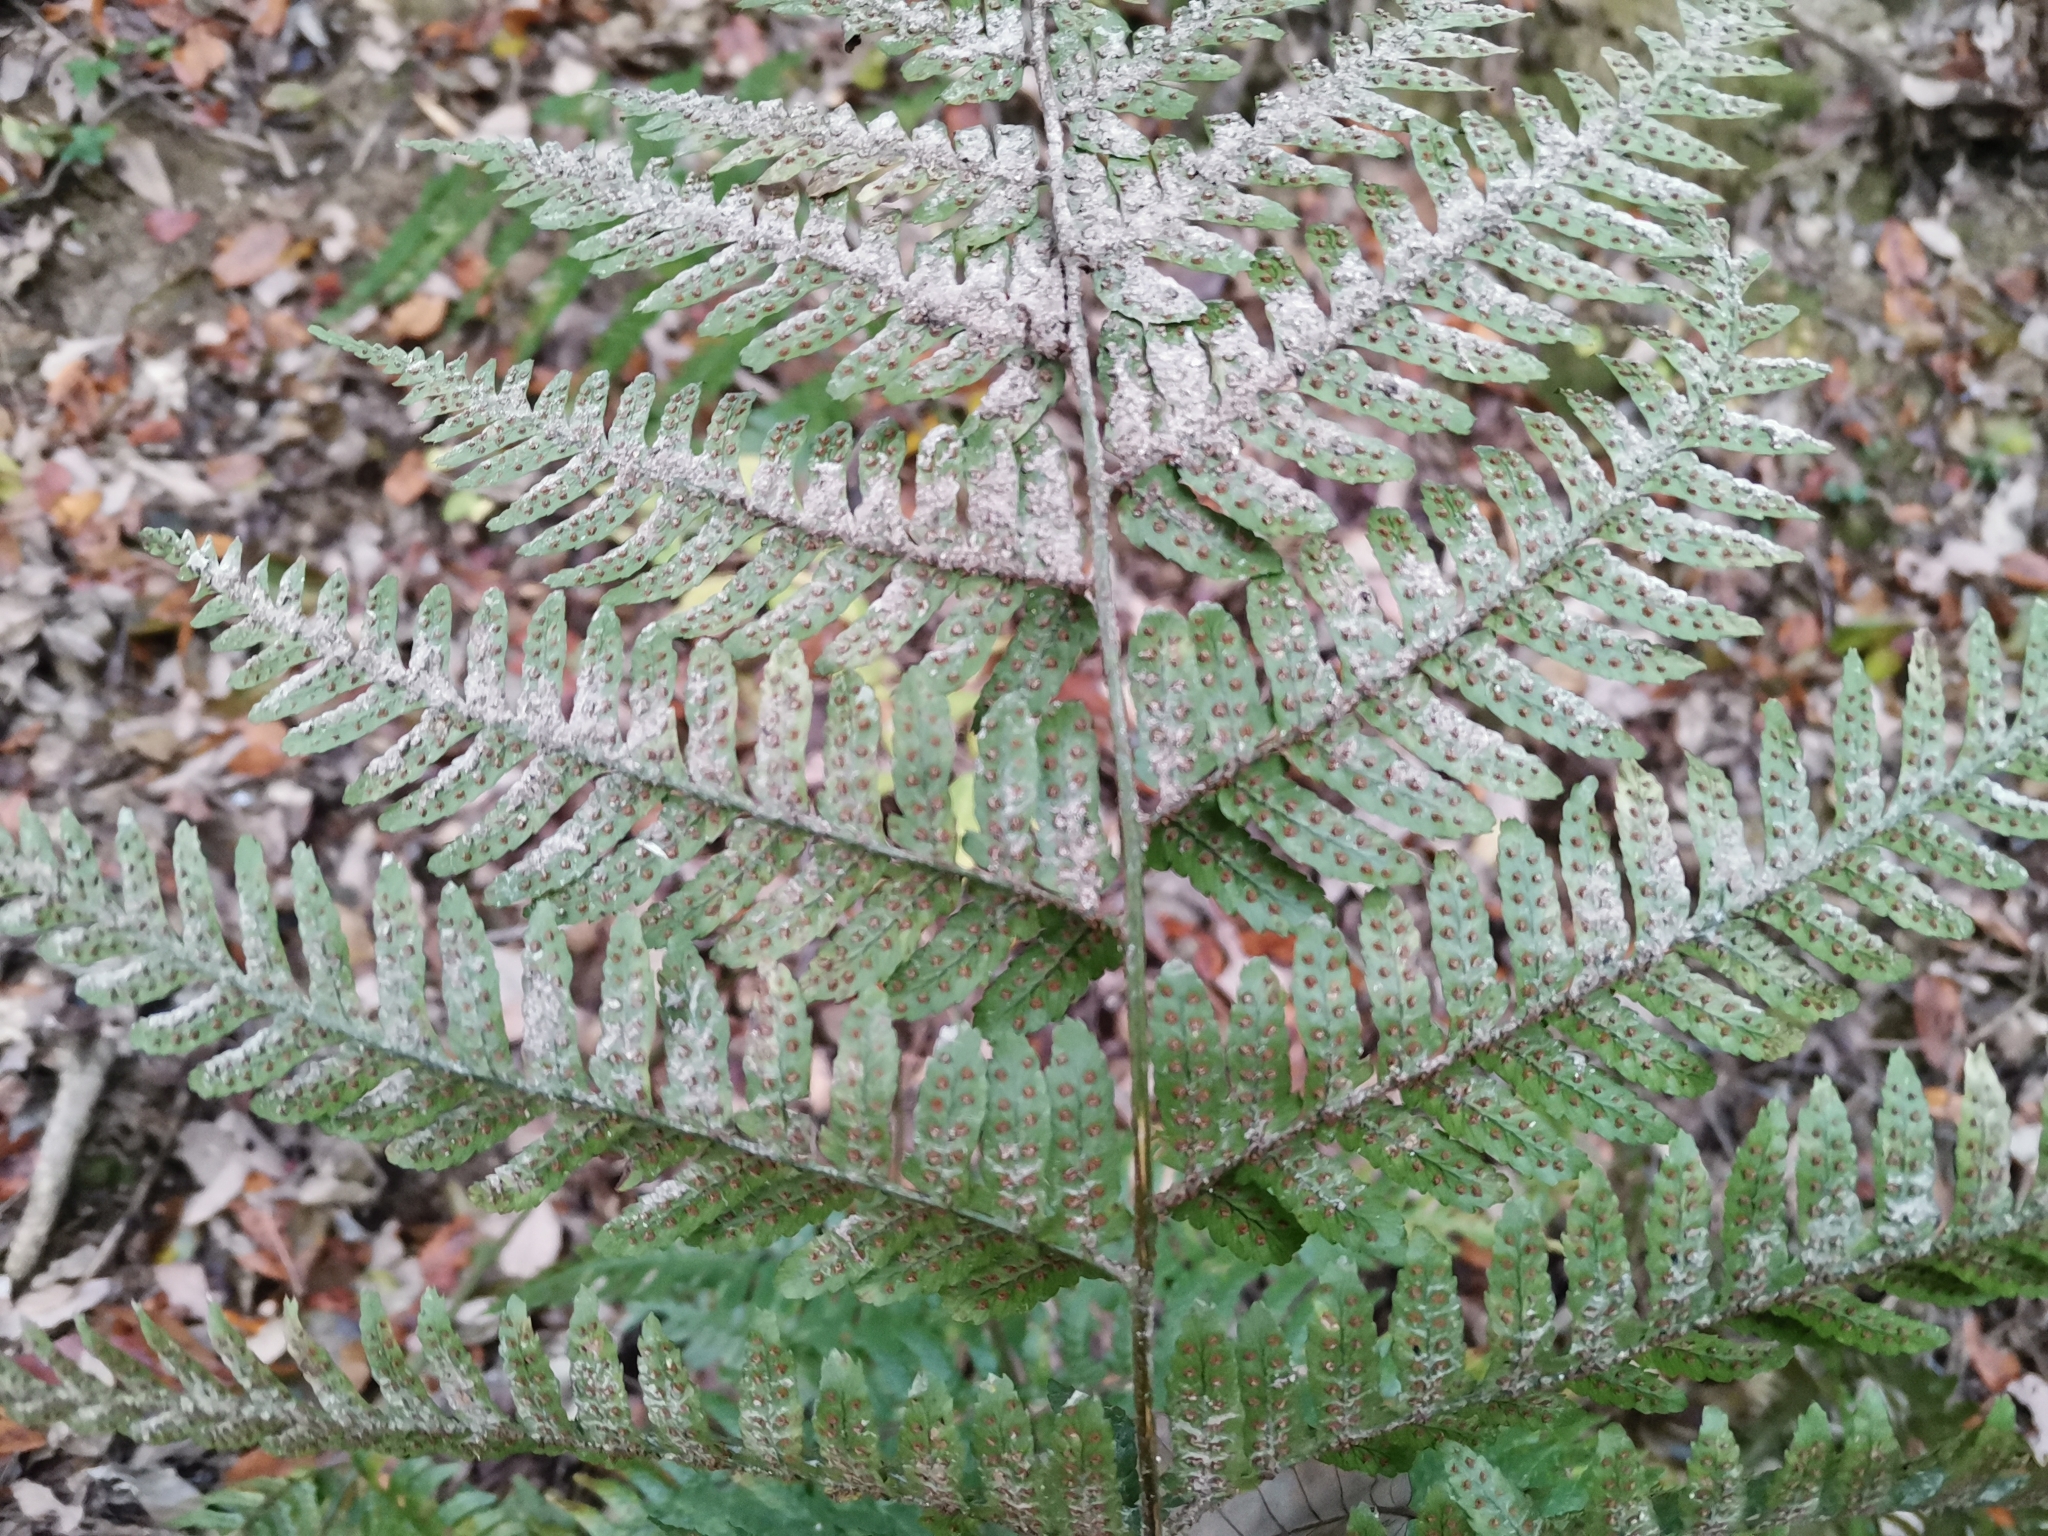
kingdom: Plantae
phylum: Tracheophyta
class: Polypodiopsida
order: Polypodiales
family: Dryopteridaceae
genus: Dryopteris
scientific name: Dryopteris erythrosora
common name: Autumn fern
